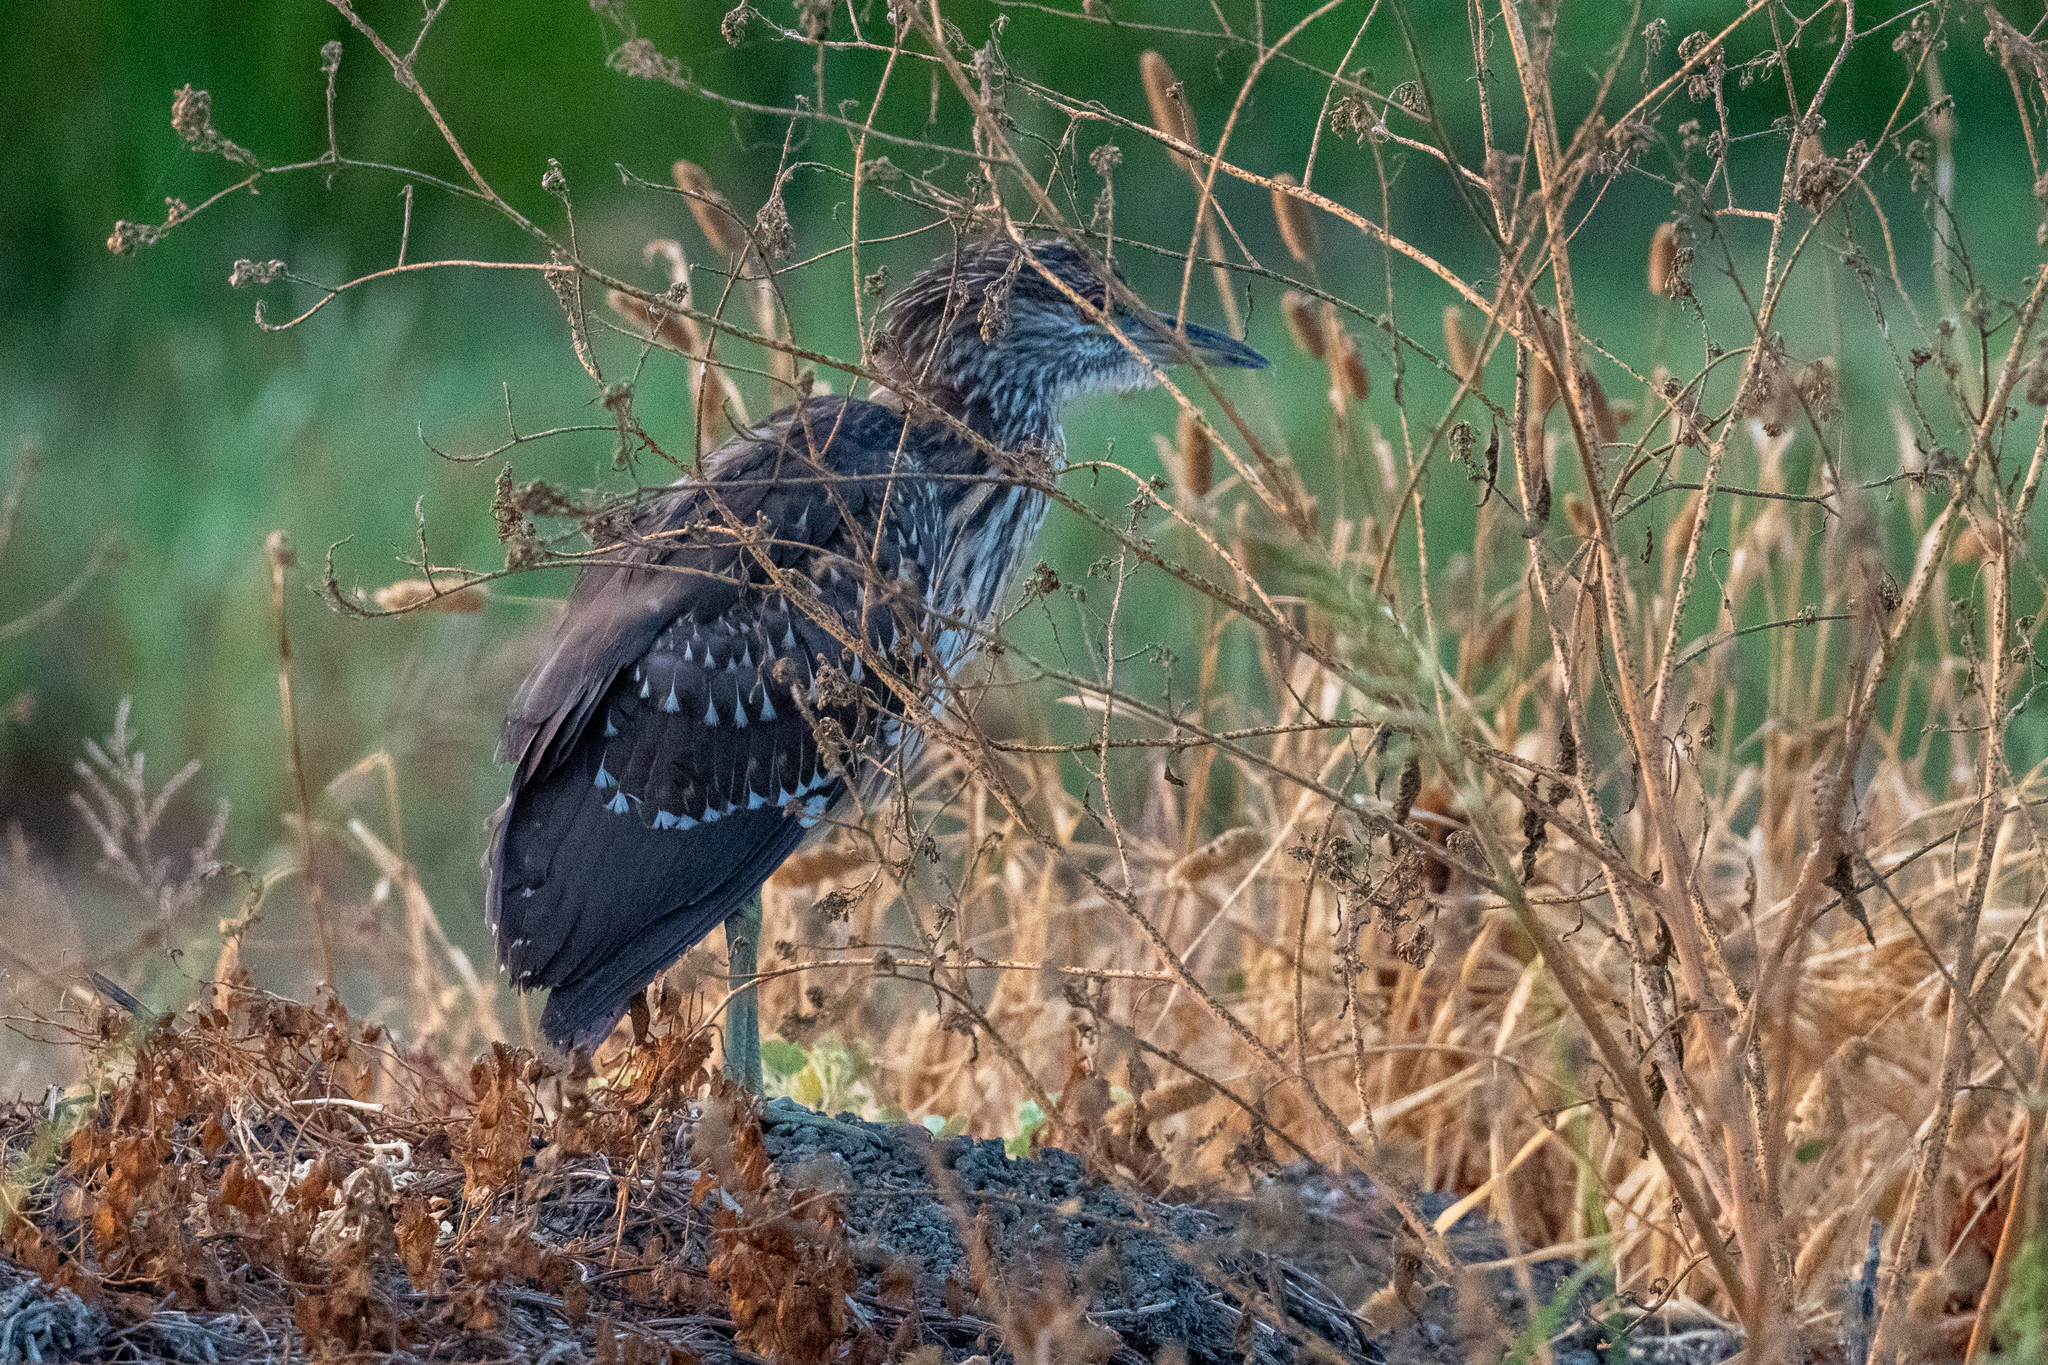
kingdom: Animalia
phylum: Chordata
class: Aves
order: Pelecaniformes
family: Ardeidae
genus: Nycticorax
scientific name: Nycticorax nycticorax
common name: Black-crowned night heron
